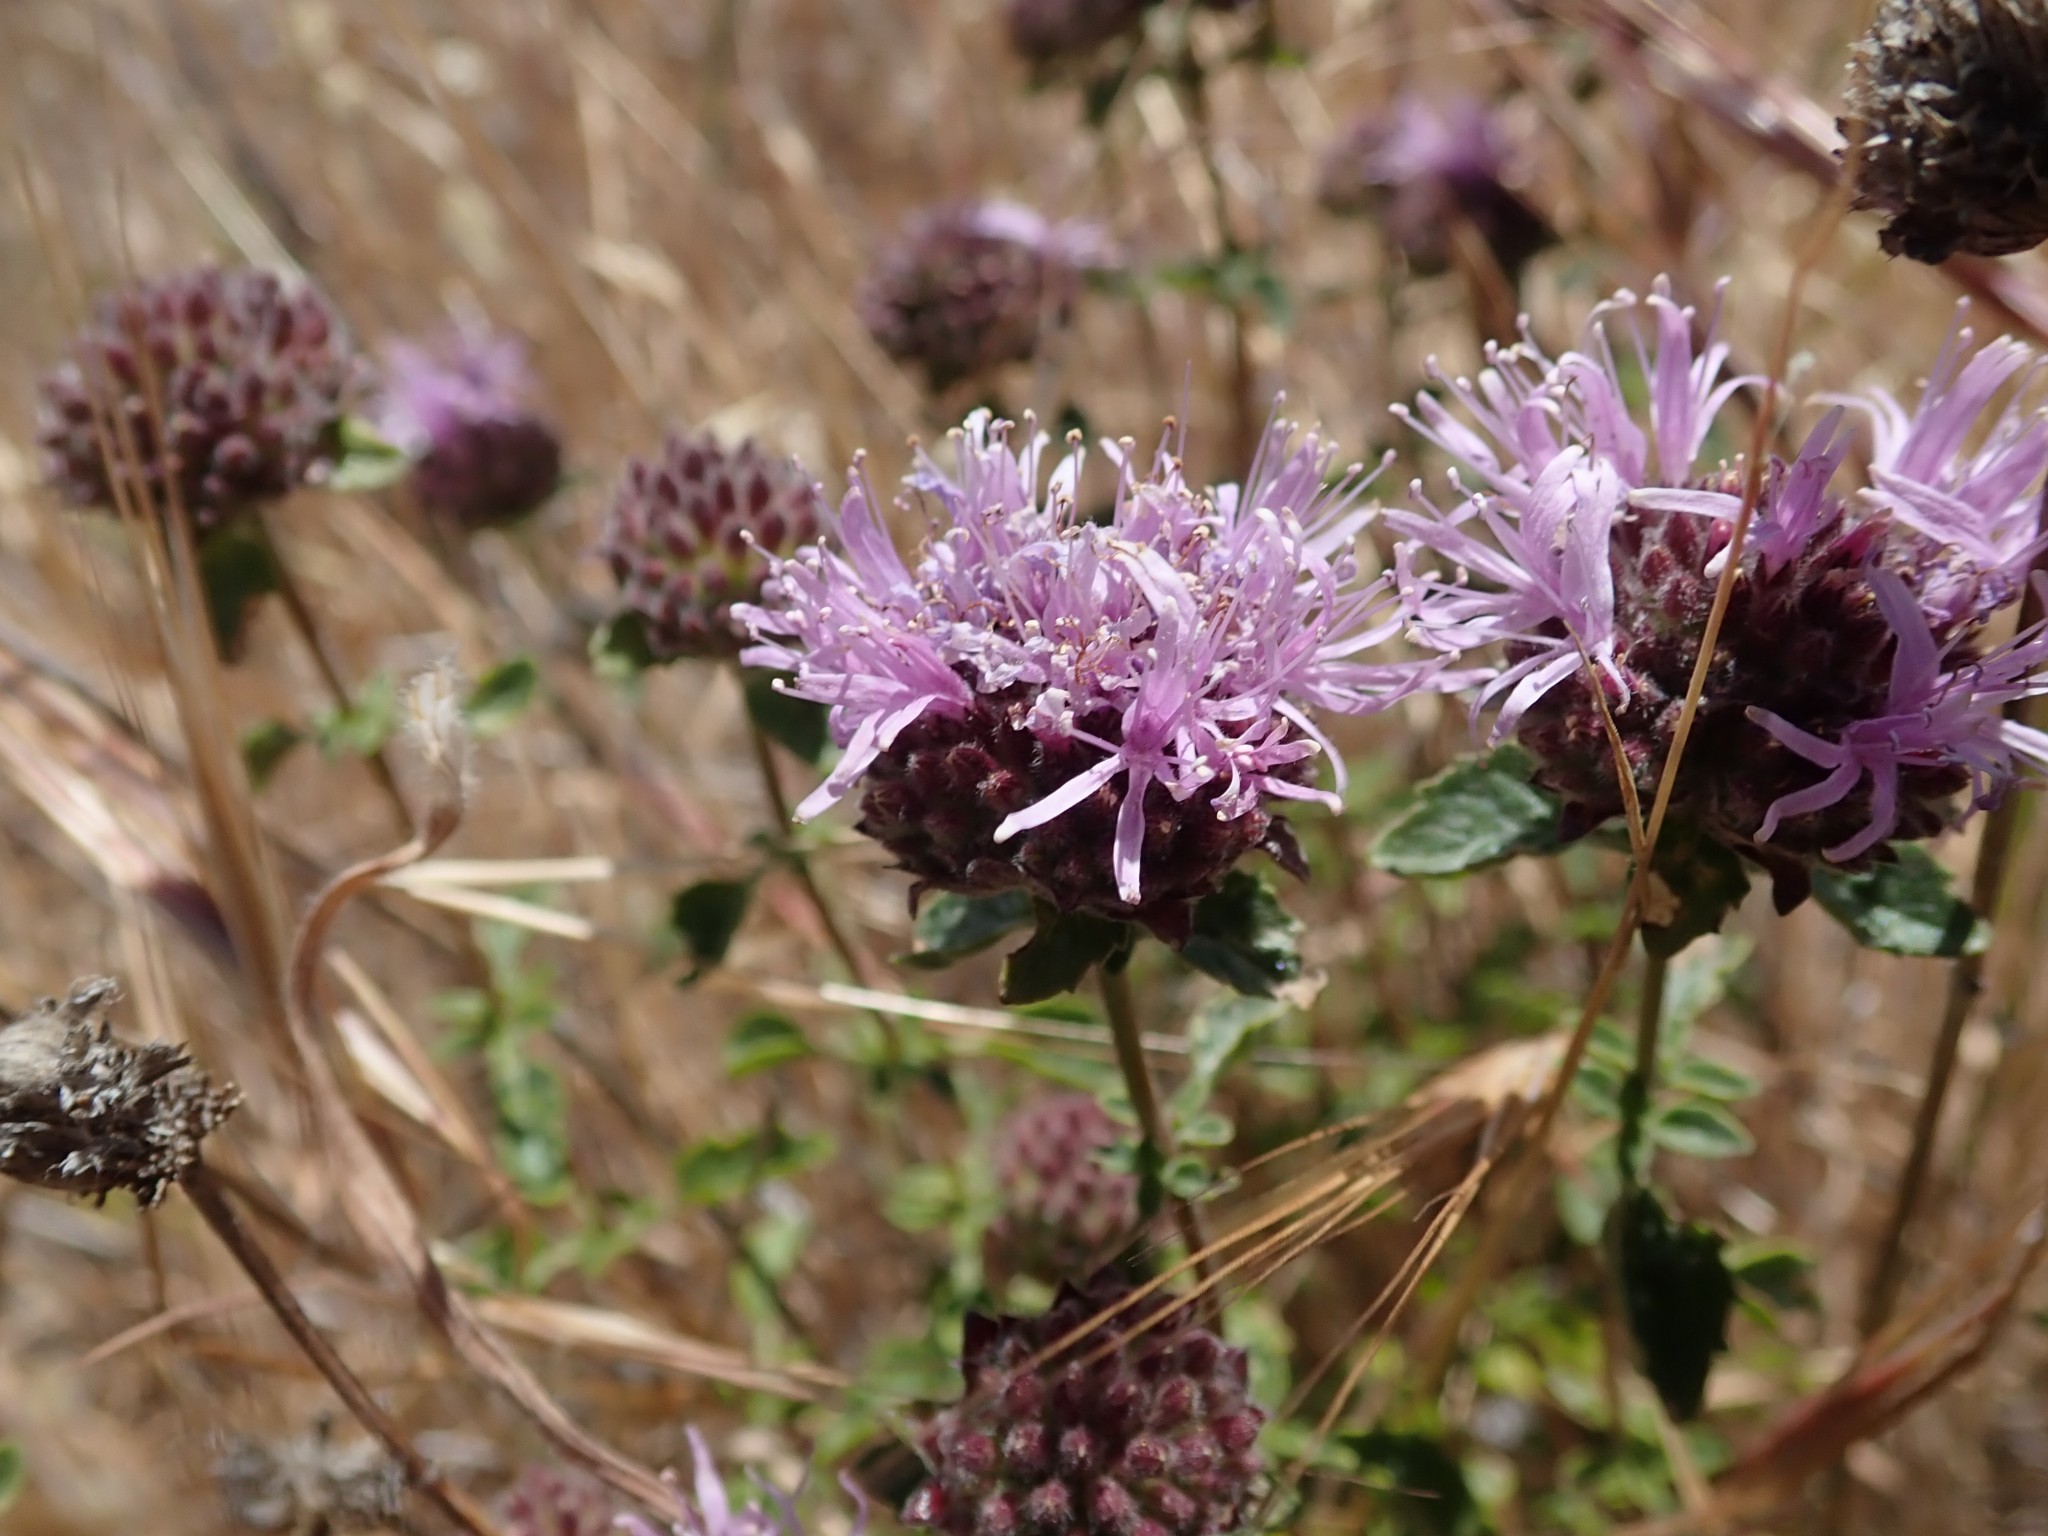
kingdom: Plantae
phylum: Tracheophyta
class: Magnoliopsida
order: Lamiales
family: Lamiaceae
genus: Monardella
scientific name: Monardella odoratissima
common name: Pacific monardella
